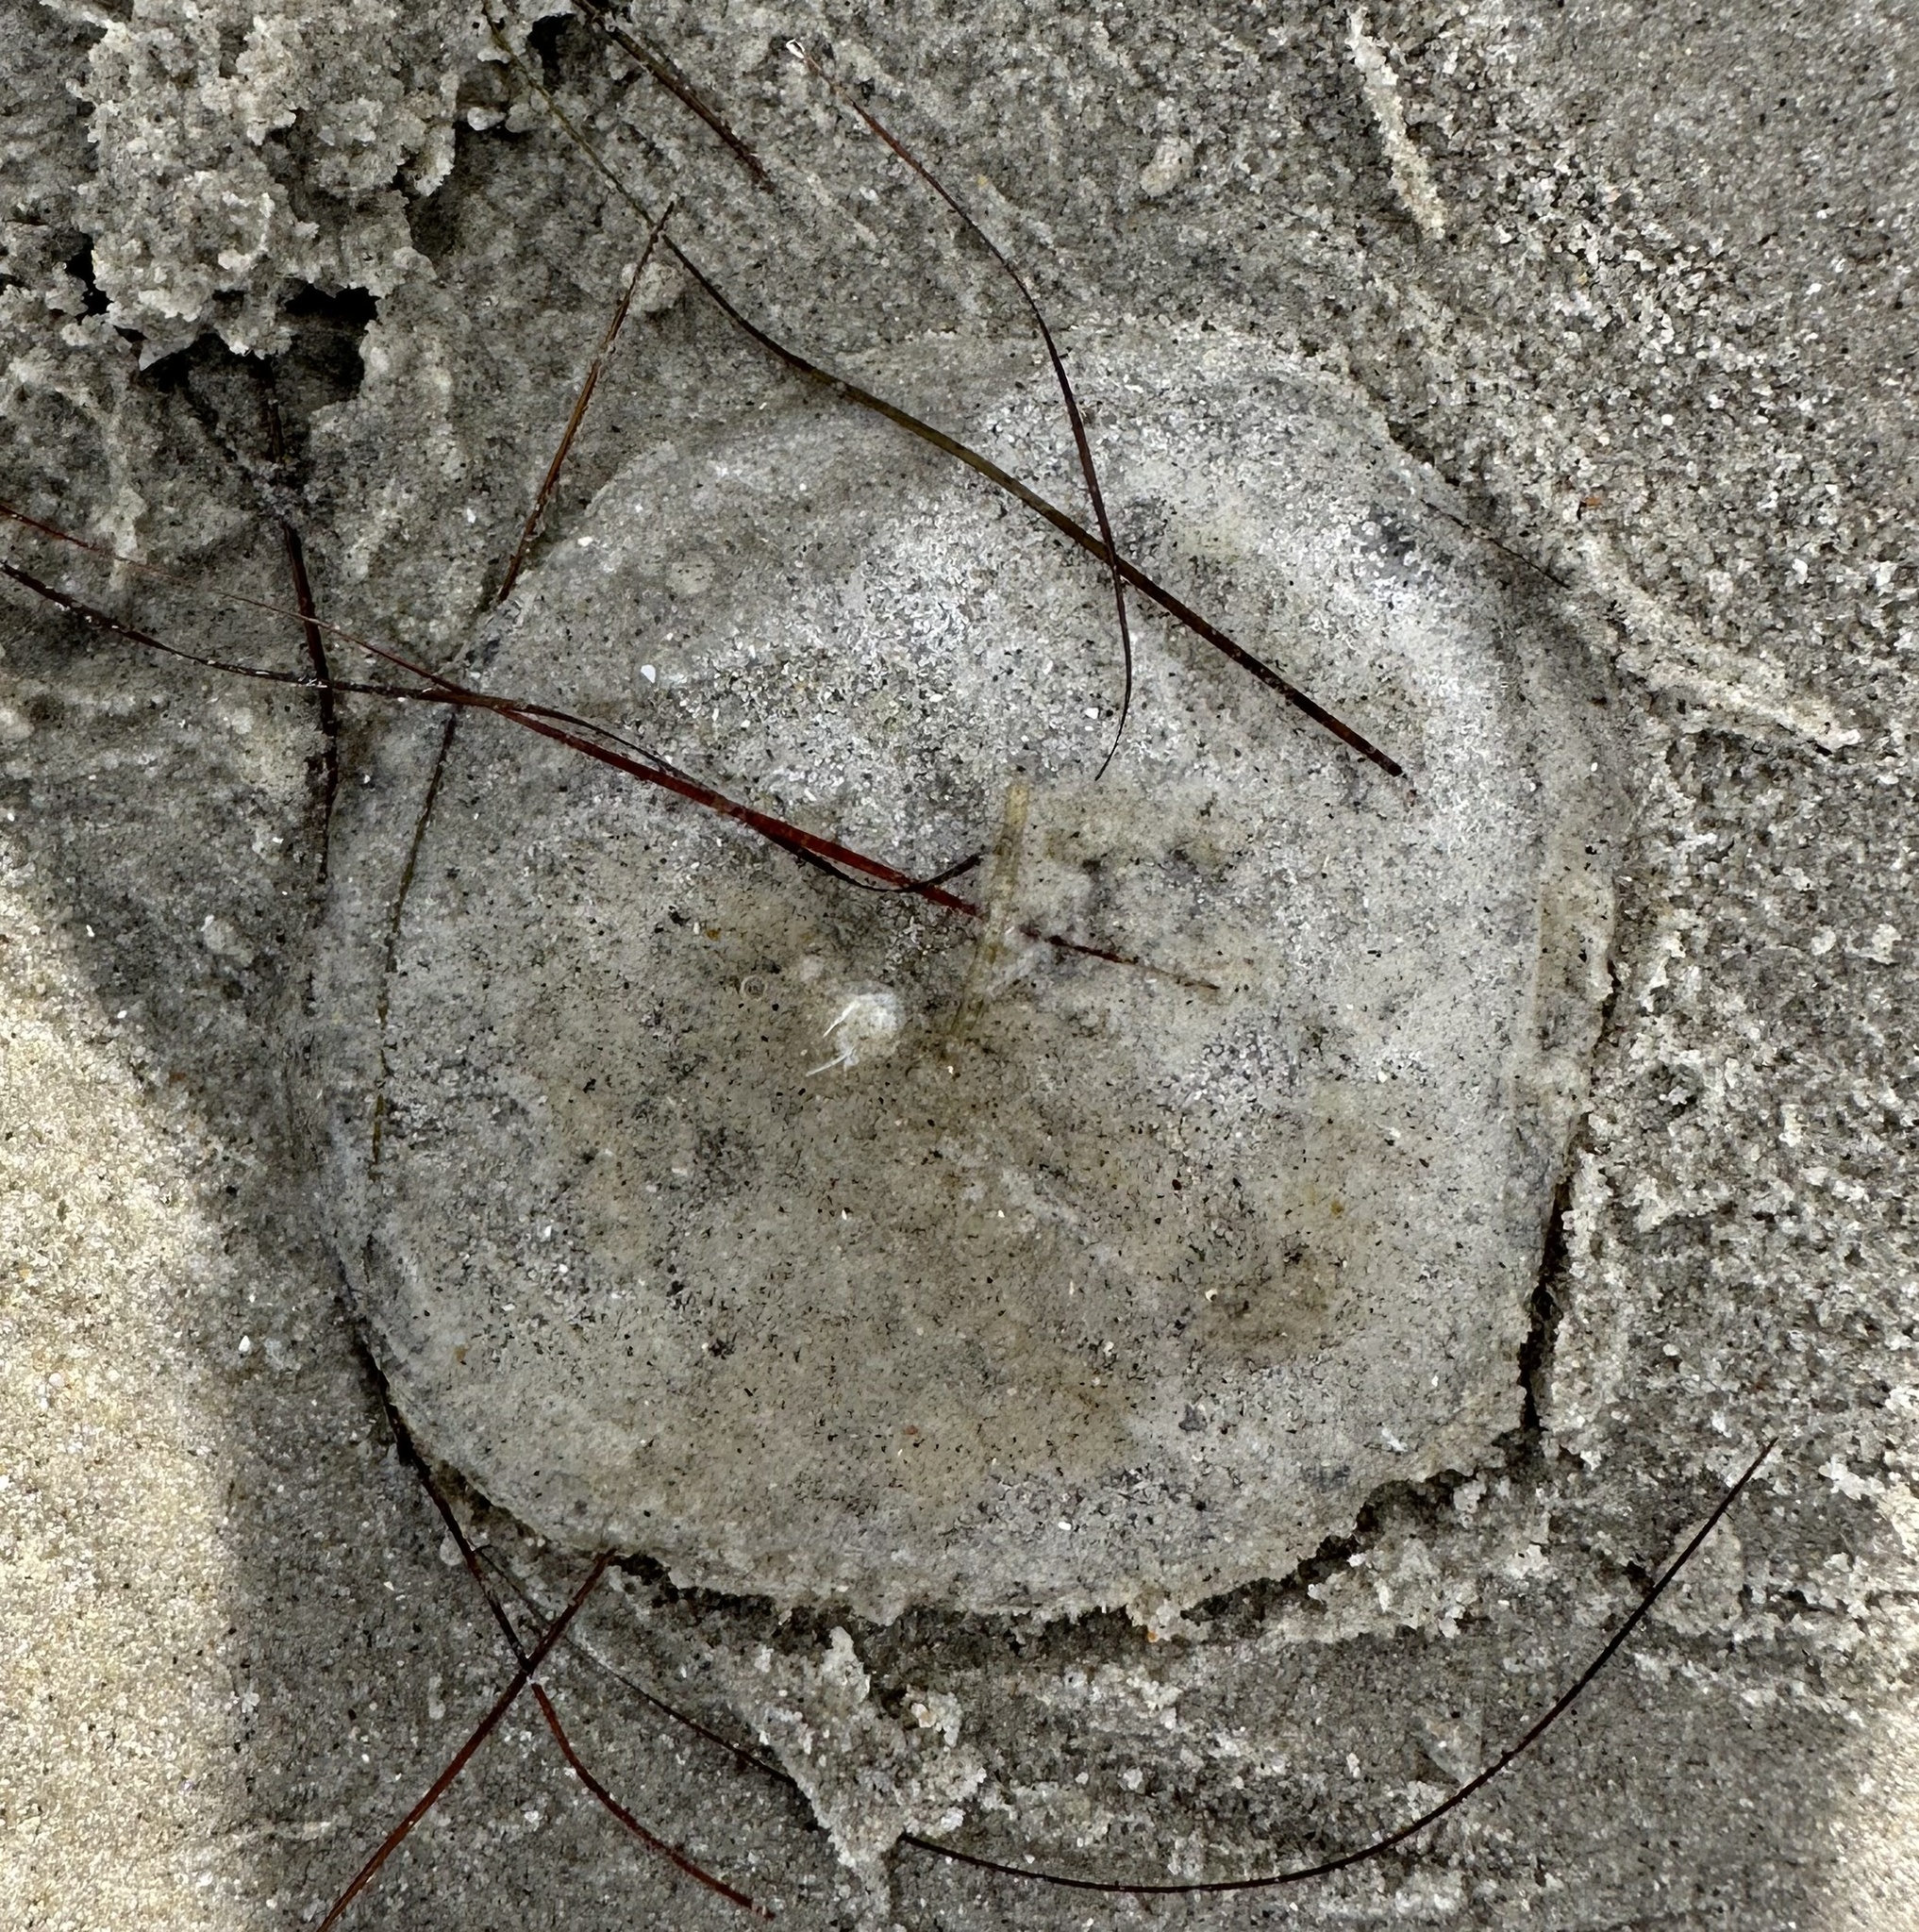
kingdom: Animalia
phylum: Cnidaria
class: Hydrozoa
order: Leptothecata
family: Aequoreidae
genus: Rhacostoma
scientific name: Rhacostoma atlanticum
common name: Lined water jelly
